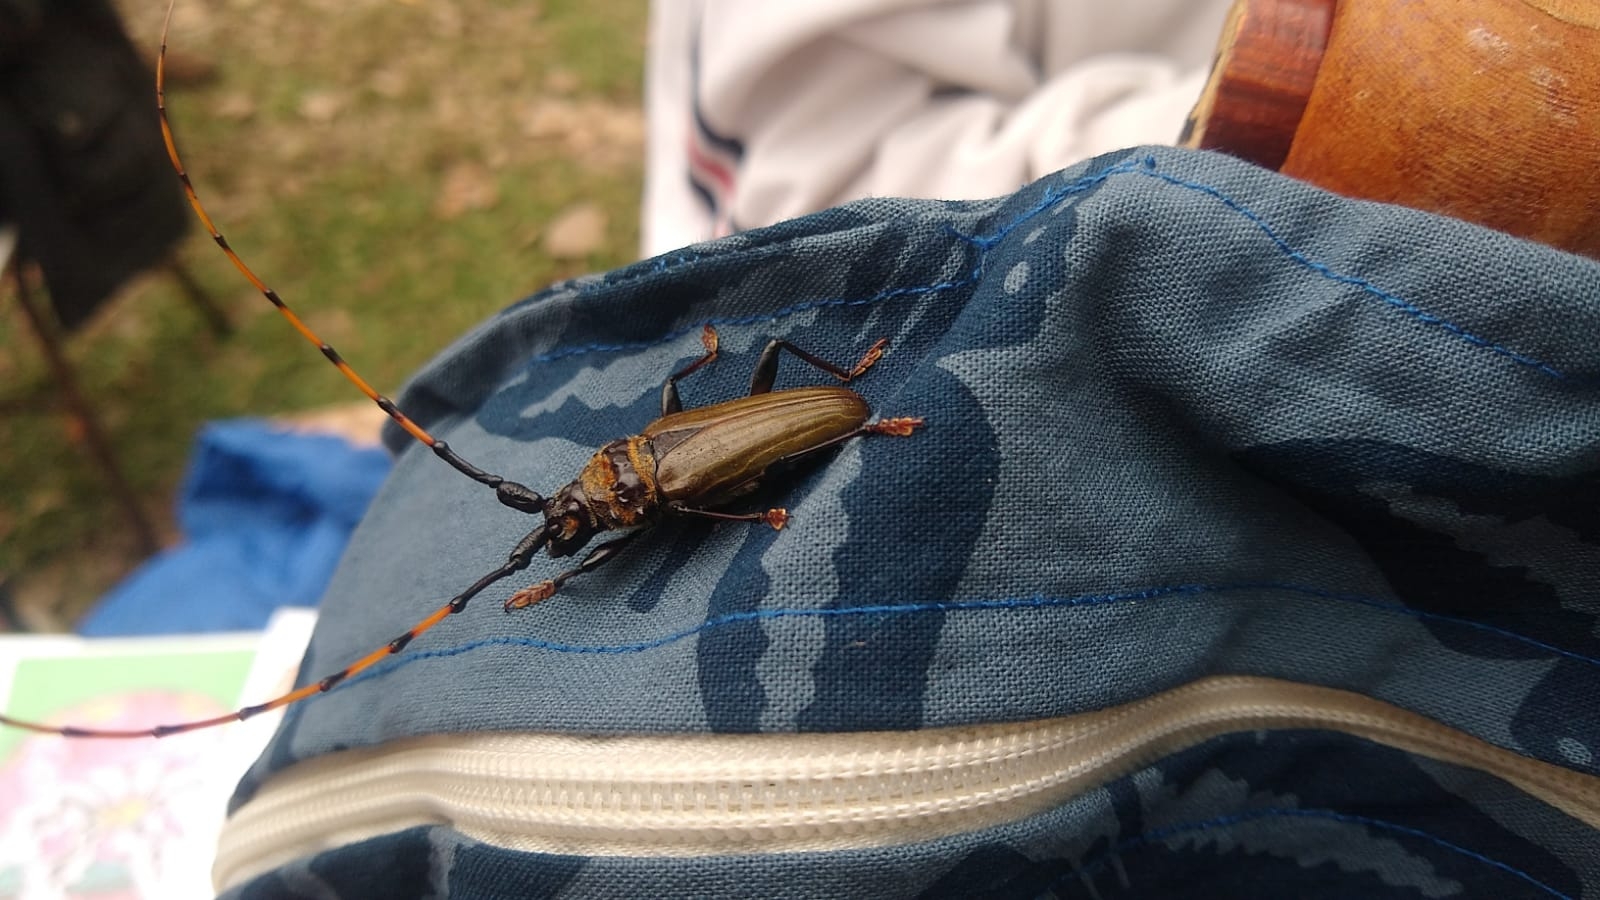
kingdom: Animalia
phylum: Arthropoda
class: Insecta
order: Coleoptera
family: Cerambycidae
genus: Retrachydes
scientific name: Retrachydes thoracicus
